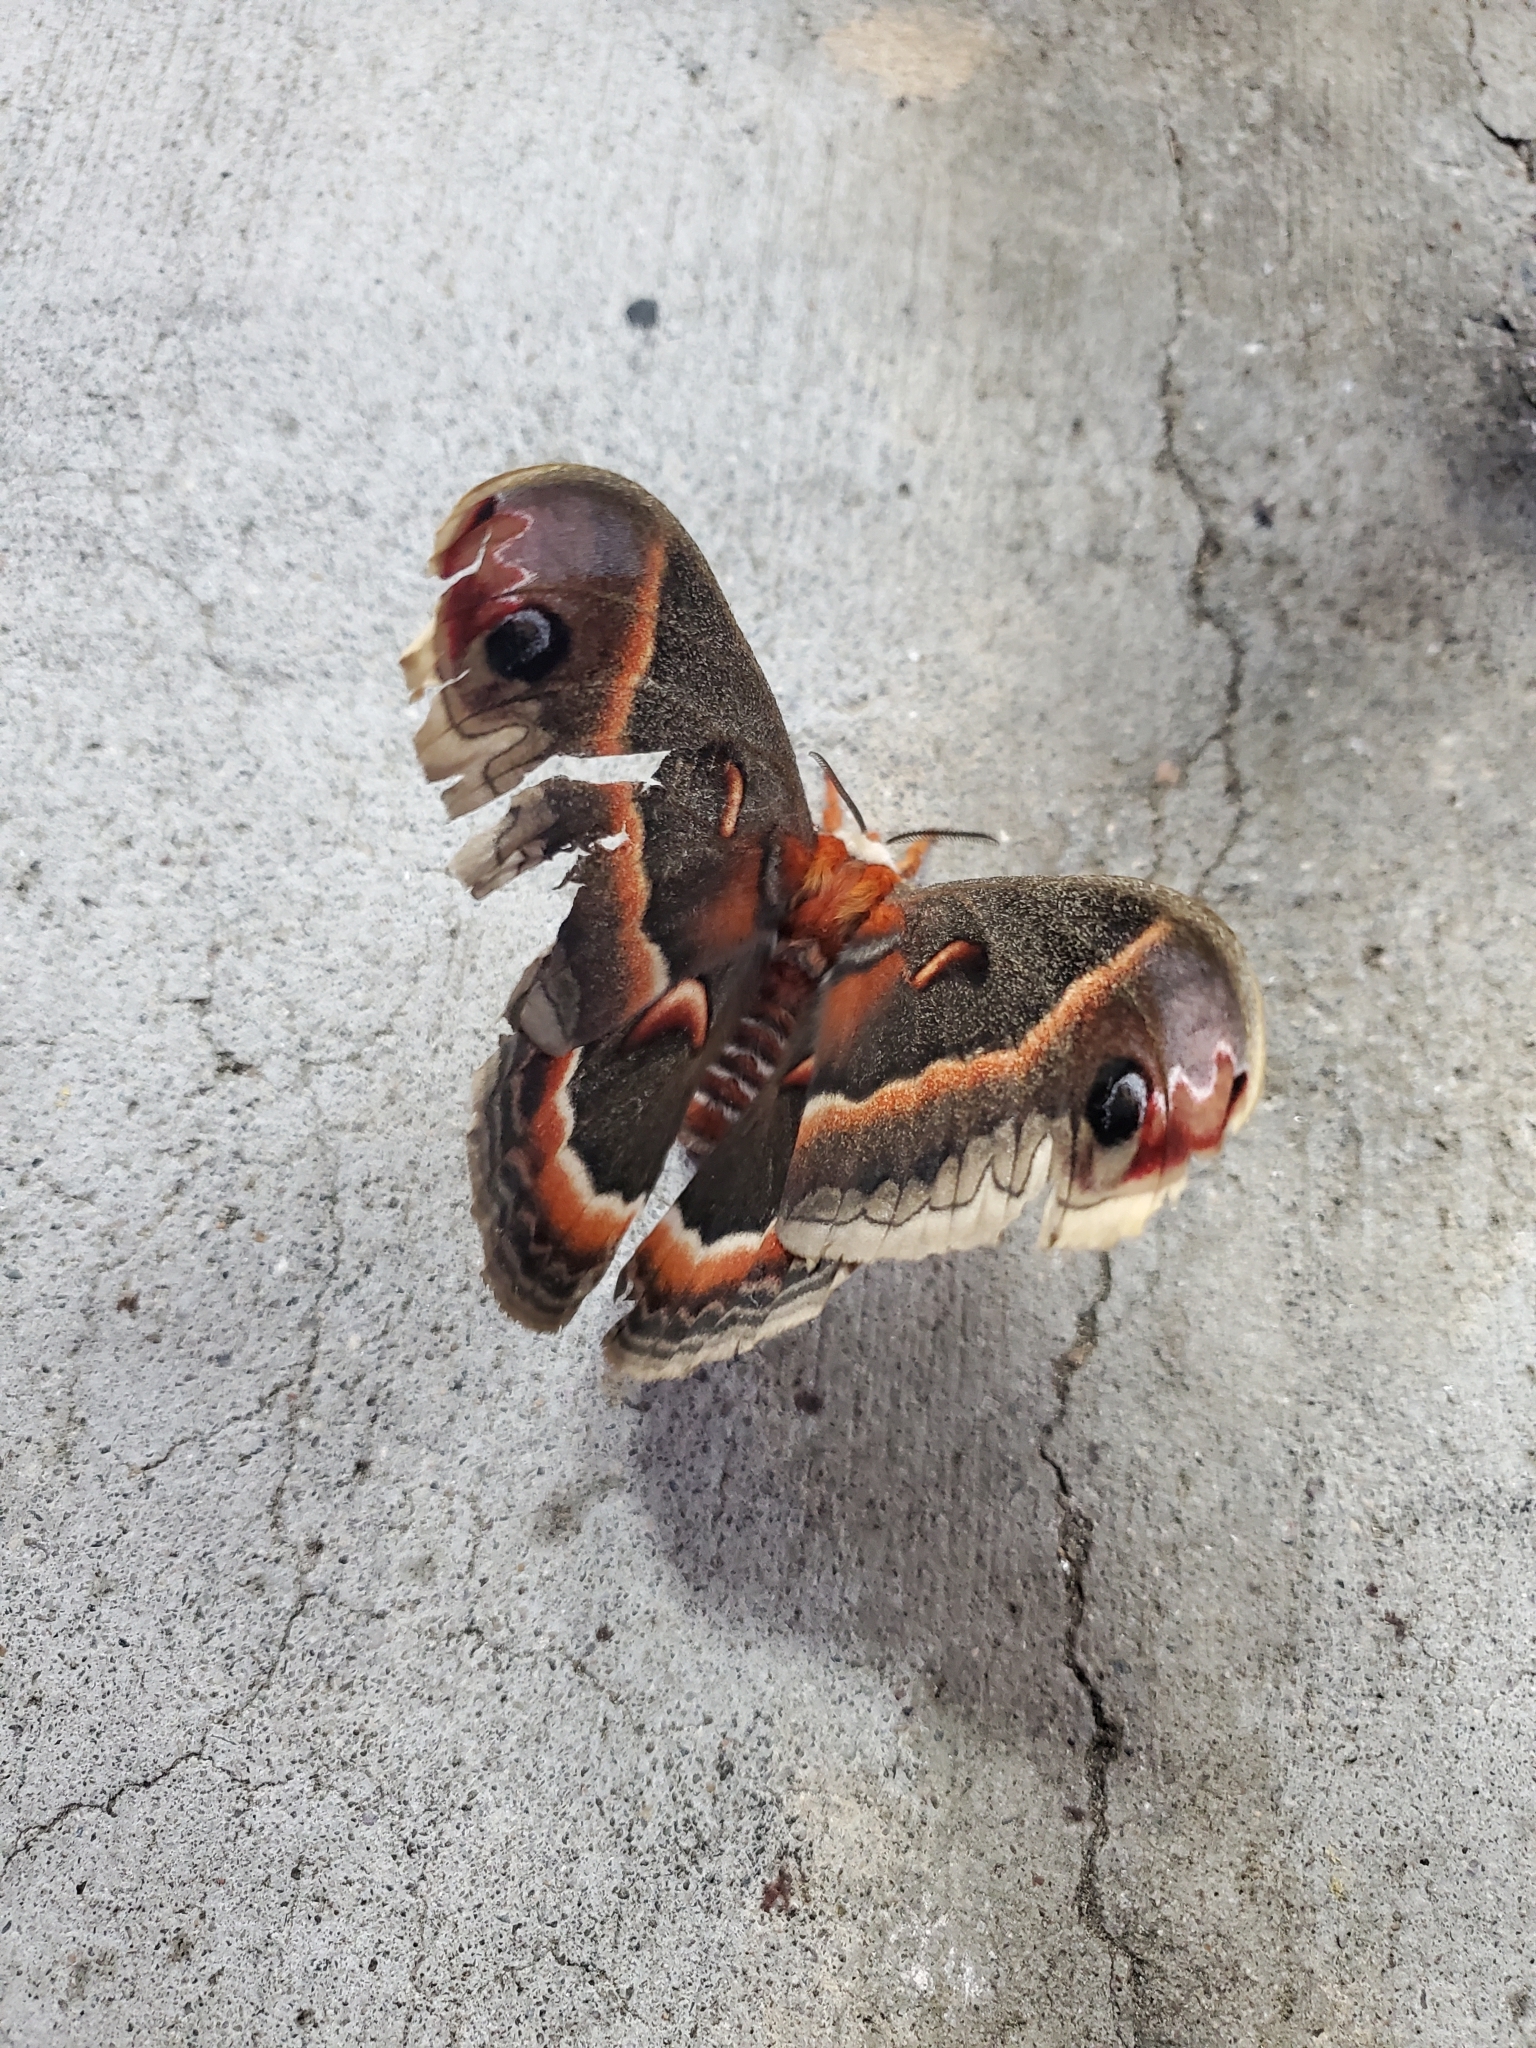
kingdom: Animalia
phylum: Arthropoda
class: Insecta
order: Lepidoptera
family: Saturniidae
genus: Hyalophora
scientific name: Hyalophora cecropia
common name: Cecropia silkmoth
